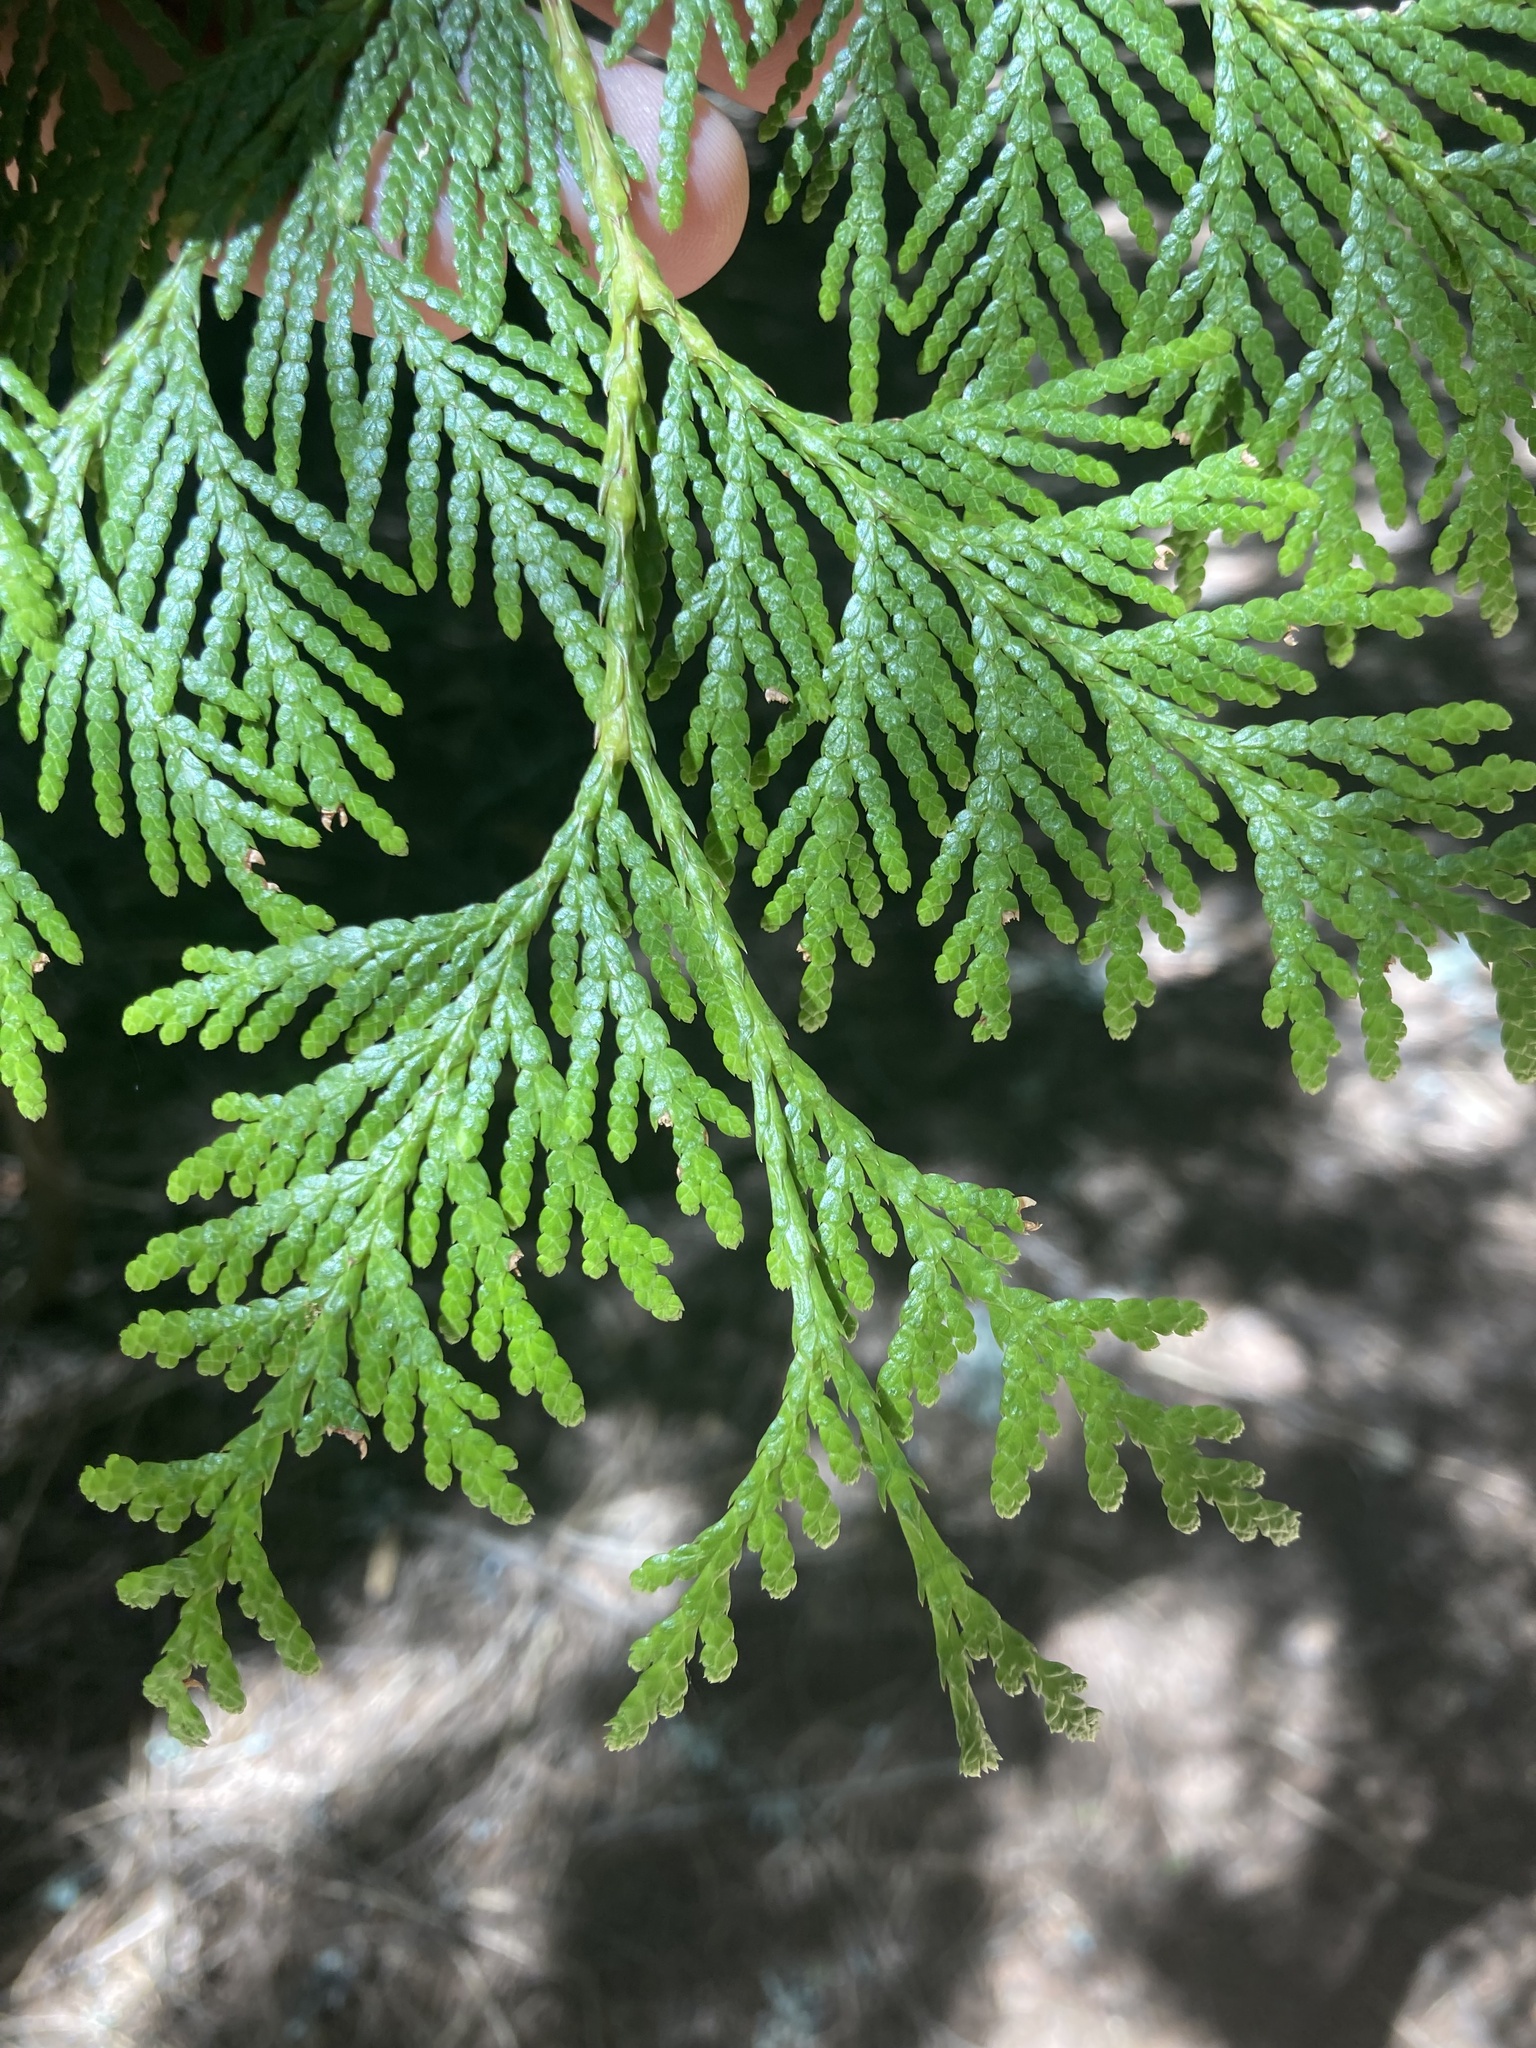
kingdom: Plantae
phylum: Tracheophyta
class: Pinopsida
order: Pinales
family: Cupressaceae
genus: Thuja
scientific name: Thuja plicata
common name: Western red-cedar
